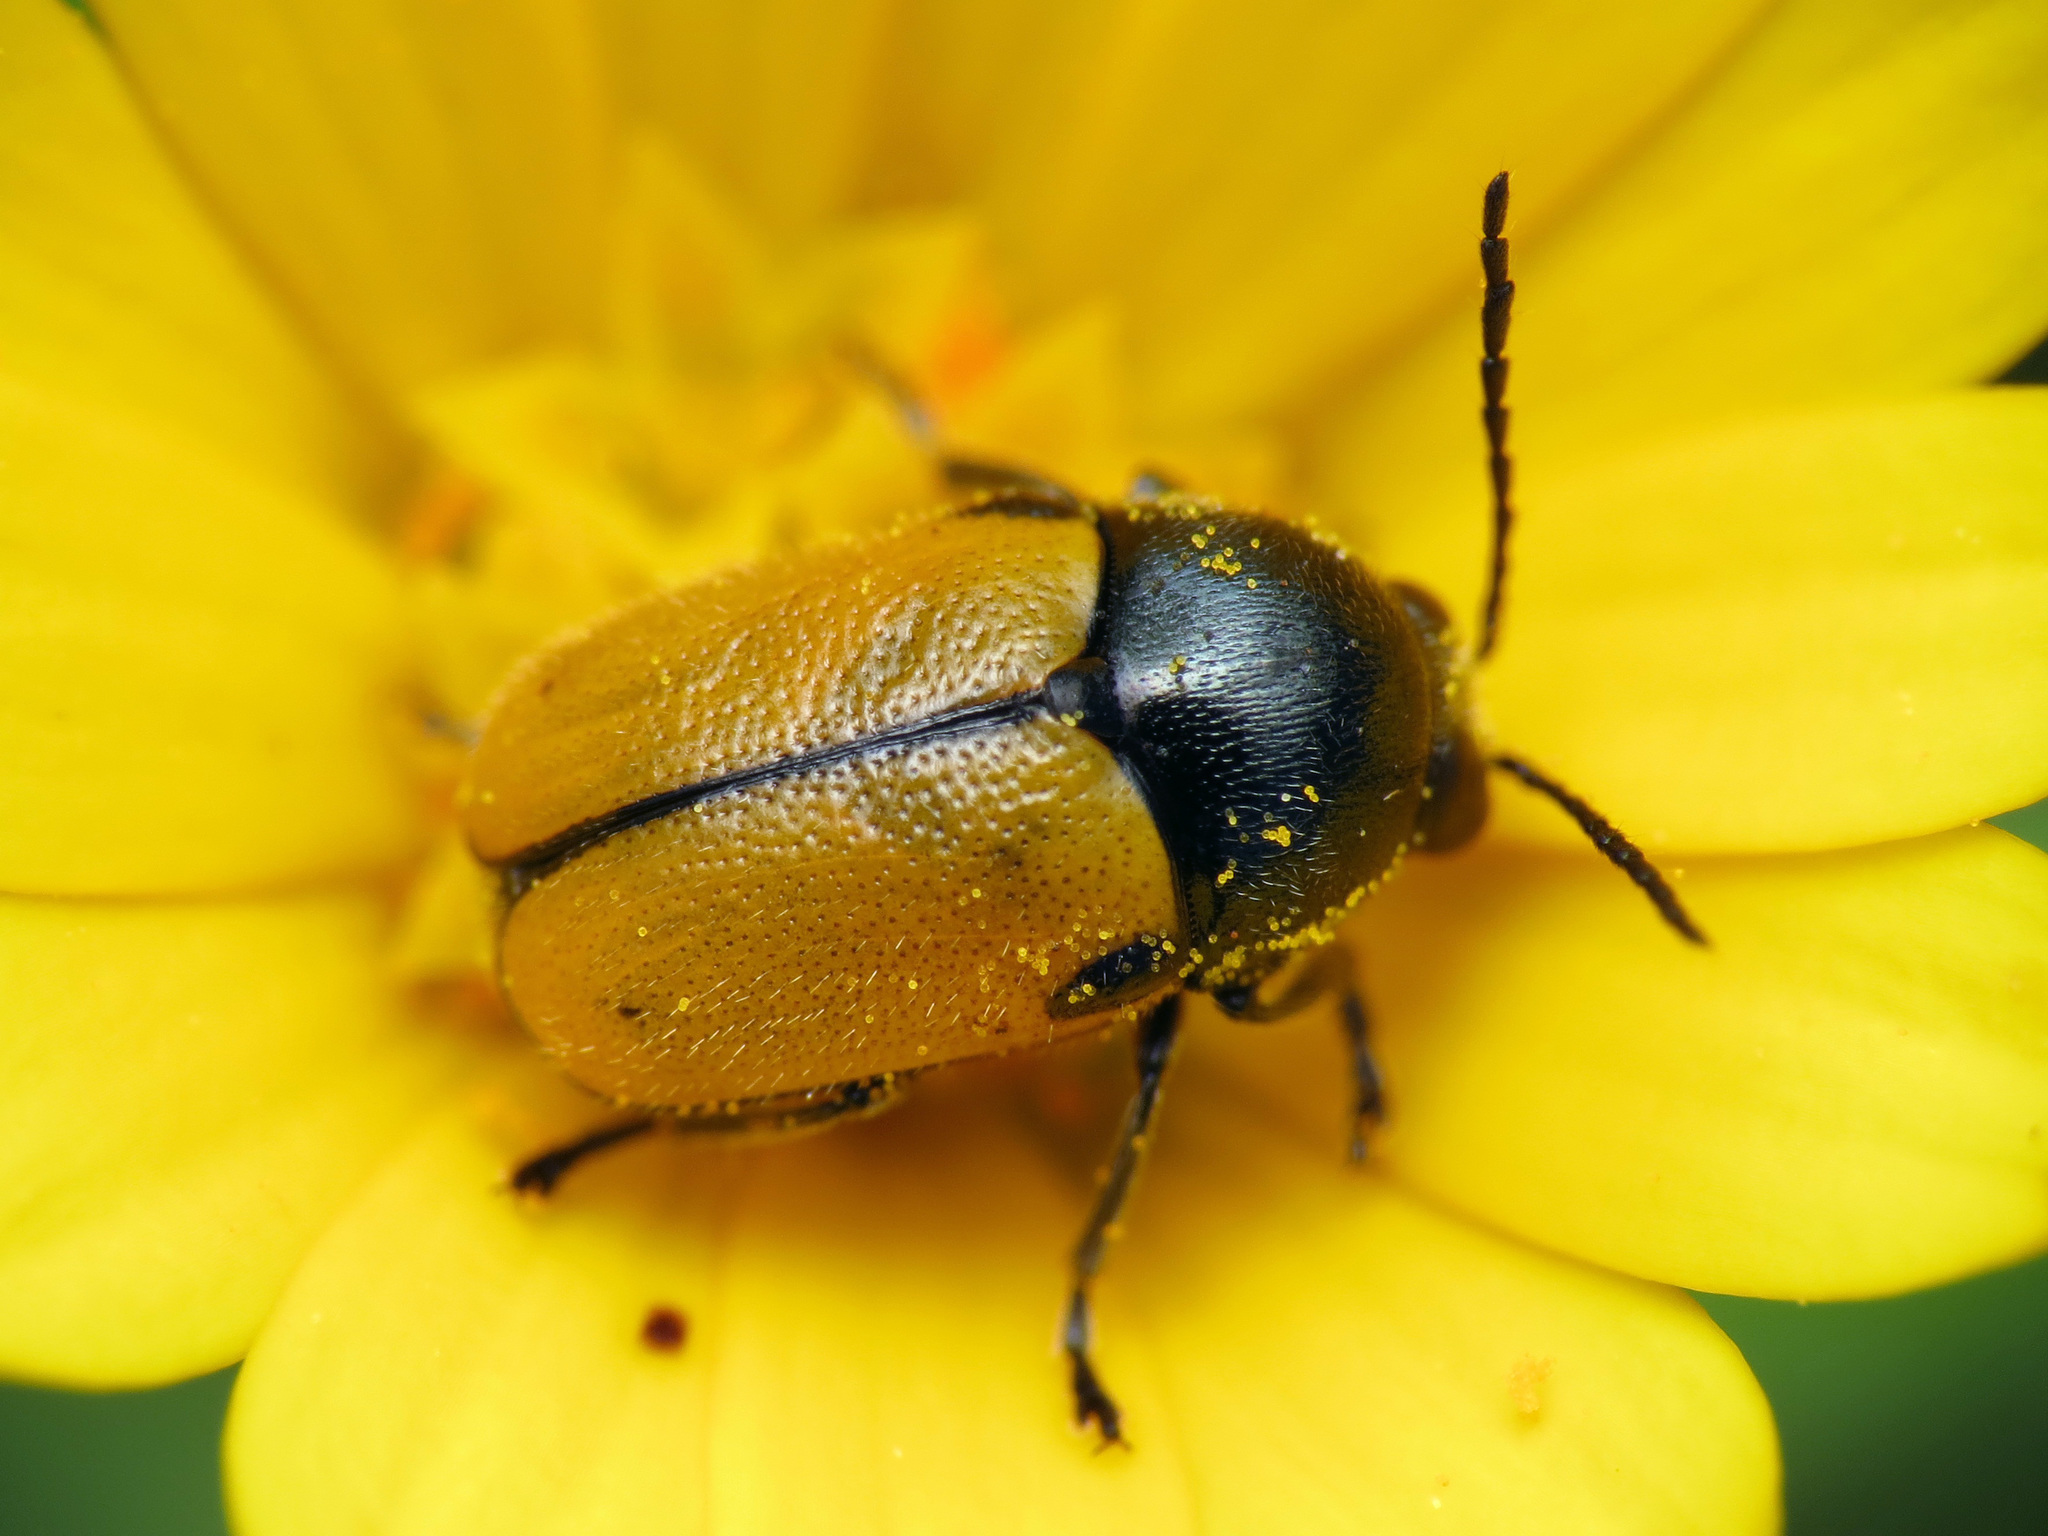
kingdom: Animalia
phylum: Arthropoda
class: Insecta
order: Coleoptera
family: Chrysomelidae
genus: Cryptocephalus
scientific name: Cryptocephalus rugicollis
